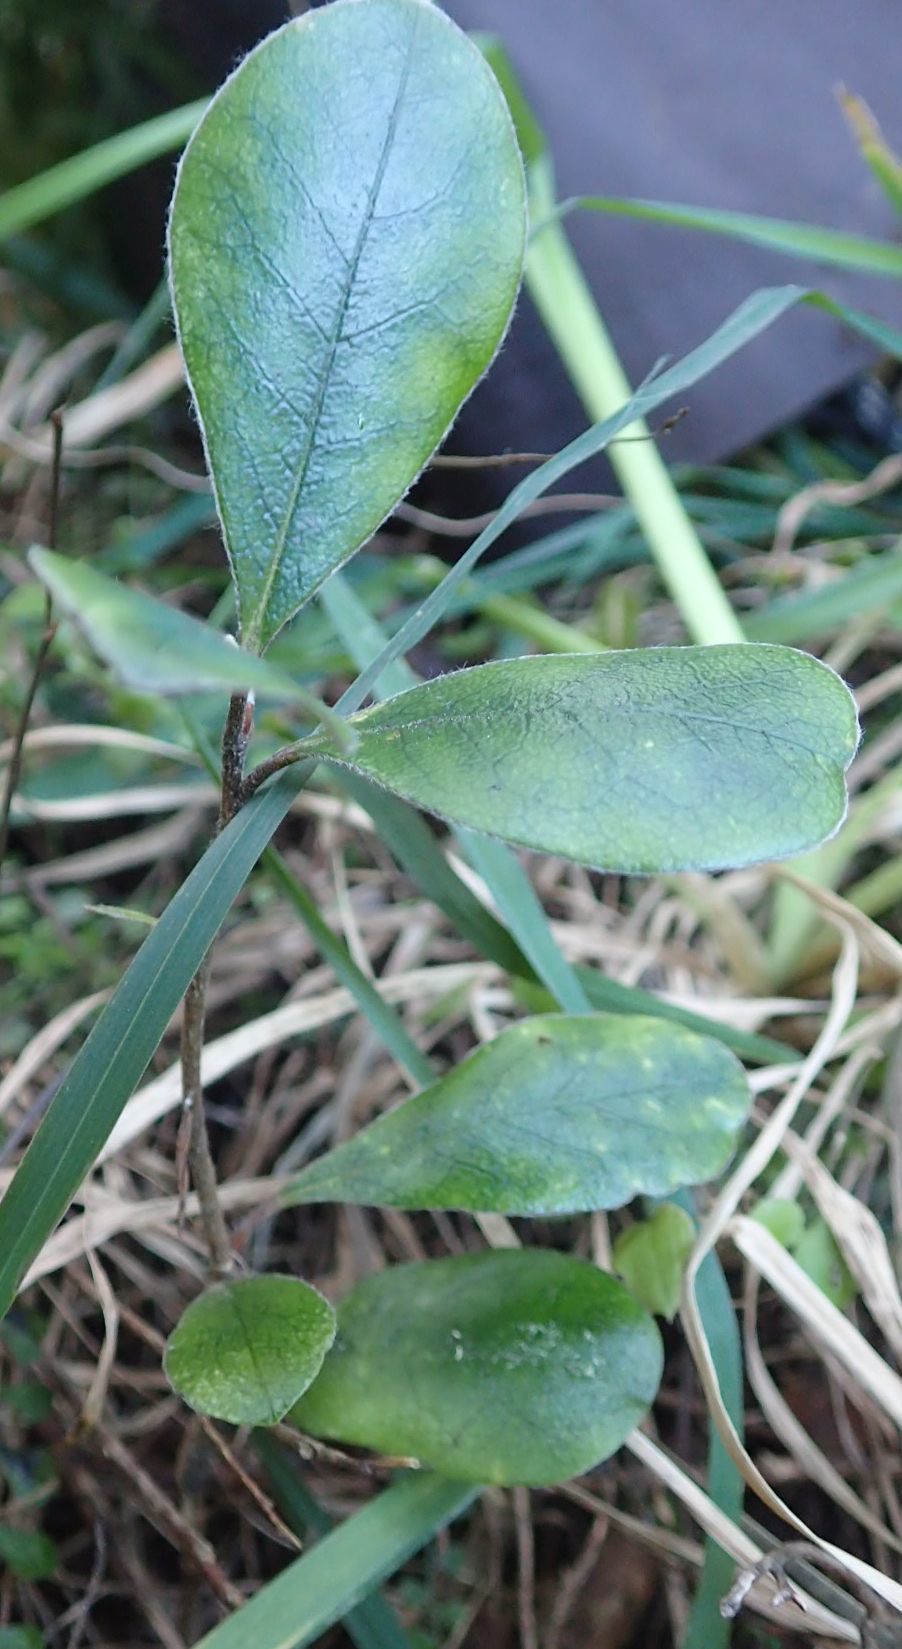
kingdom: Plantae
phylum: Tracheophyta
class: Magnoliopsida
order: Apiales
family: Pittosporaceae
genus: Pittosporum
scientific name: Pittosporum crassifolium
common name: Karo
